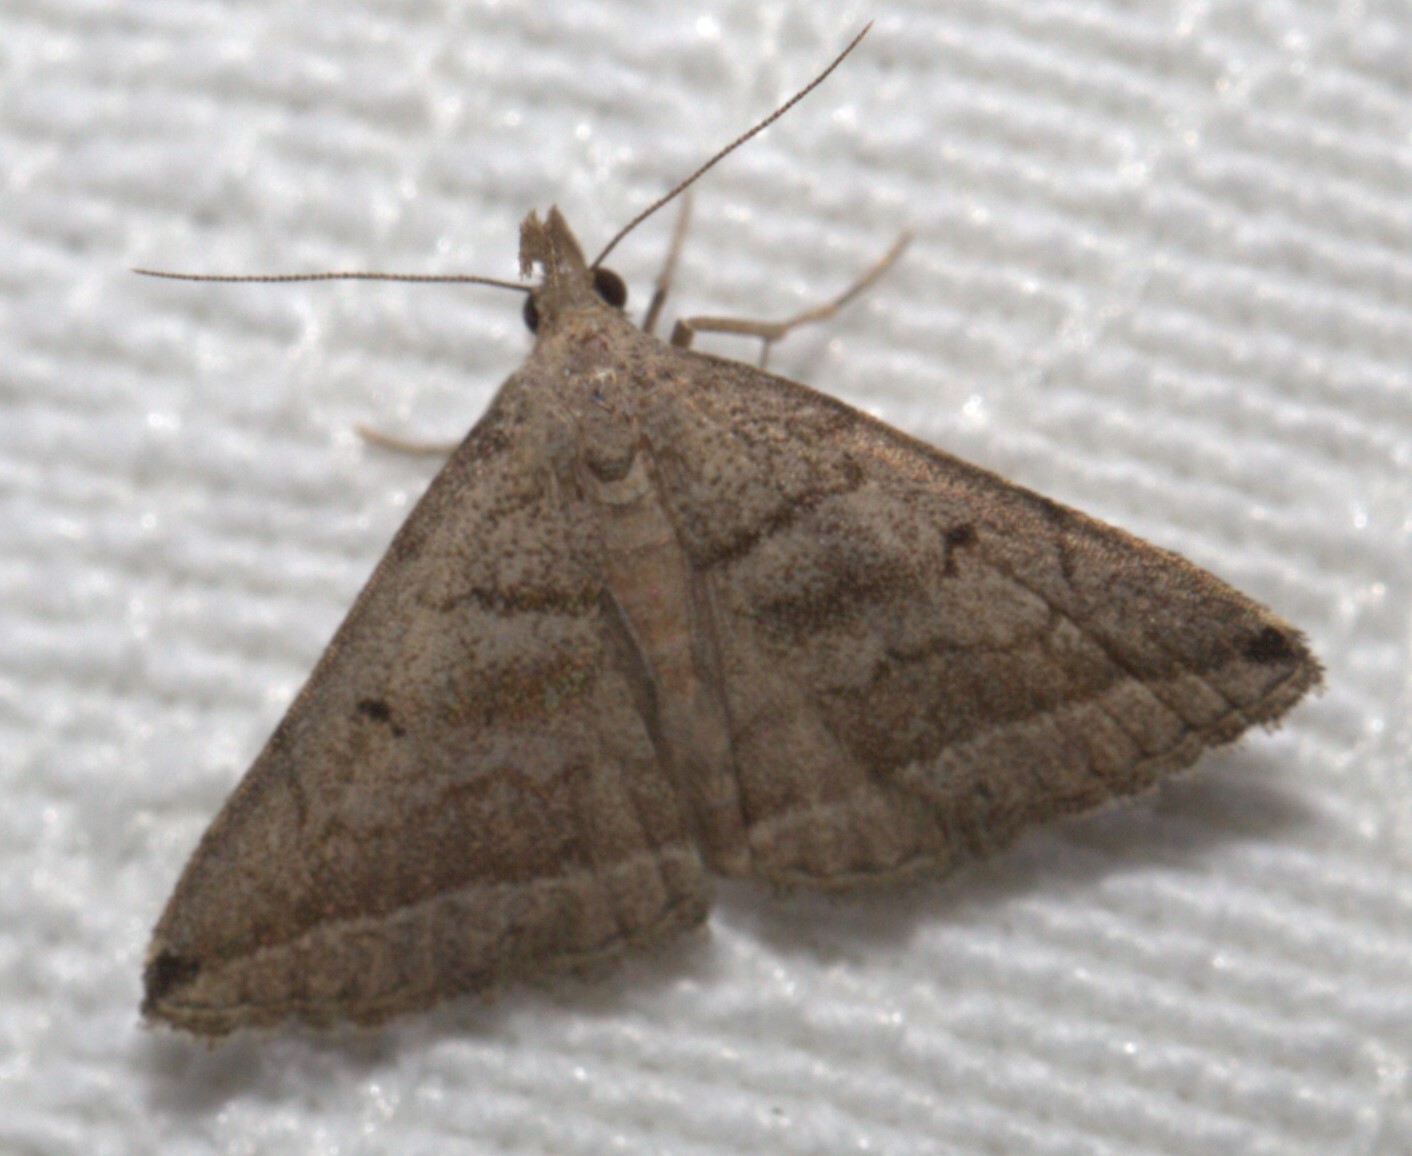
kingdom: Animalia
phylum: Arthropoda
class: Insecta
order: Lepidoptera
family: Erebidae
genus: Lysimelia
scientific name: Lysimelia lenis
